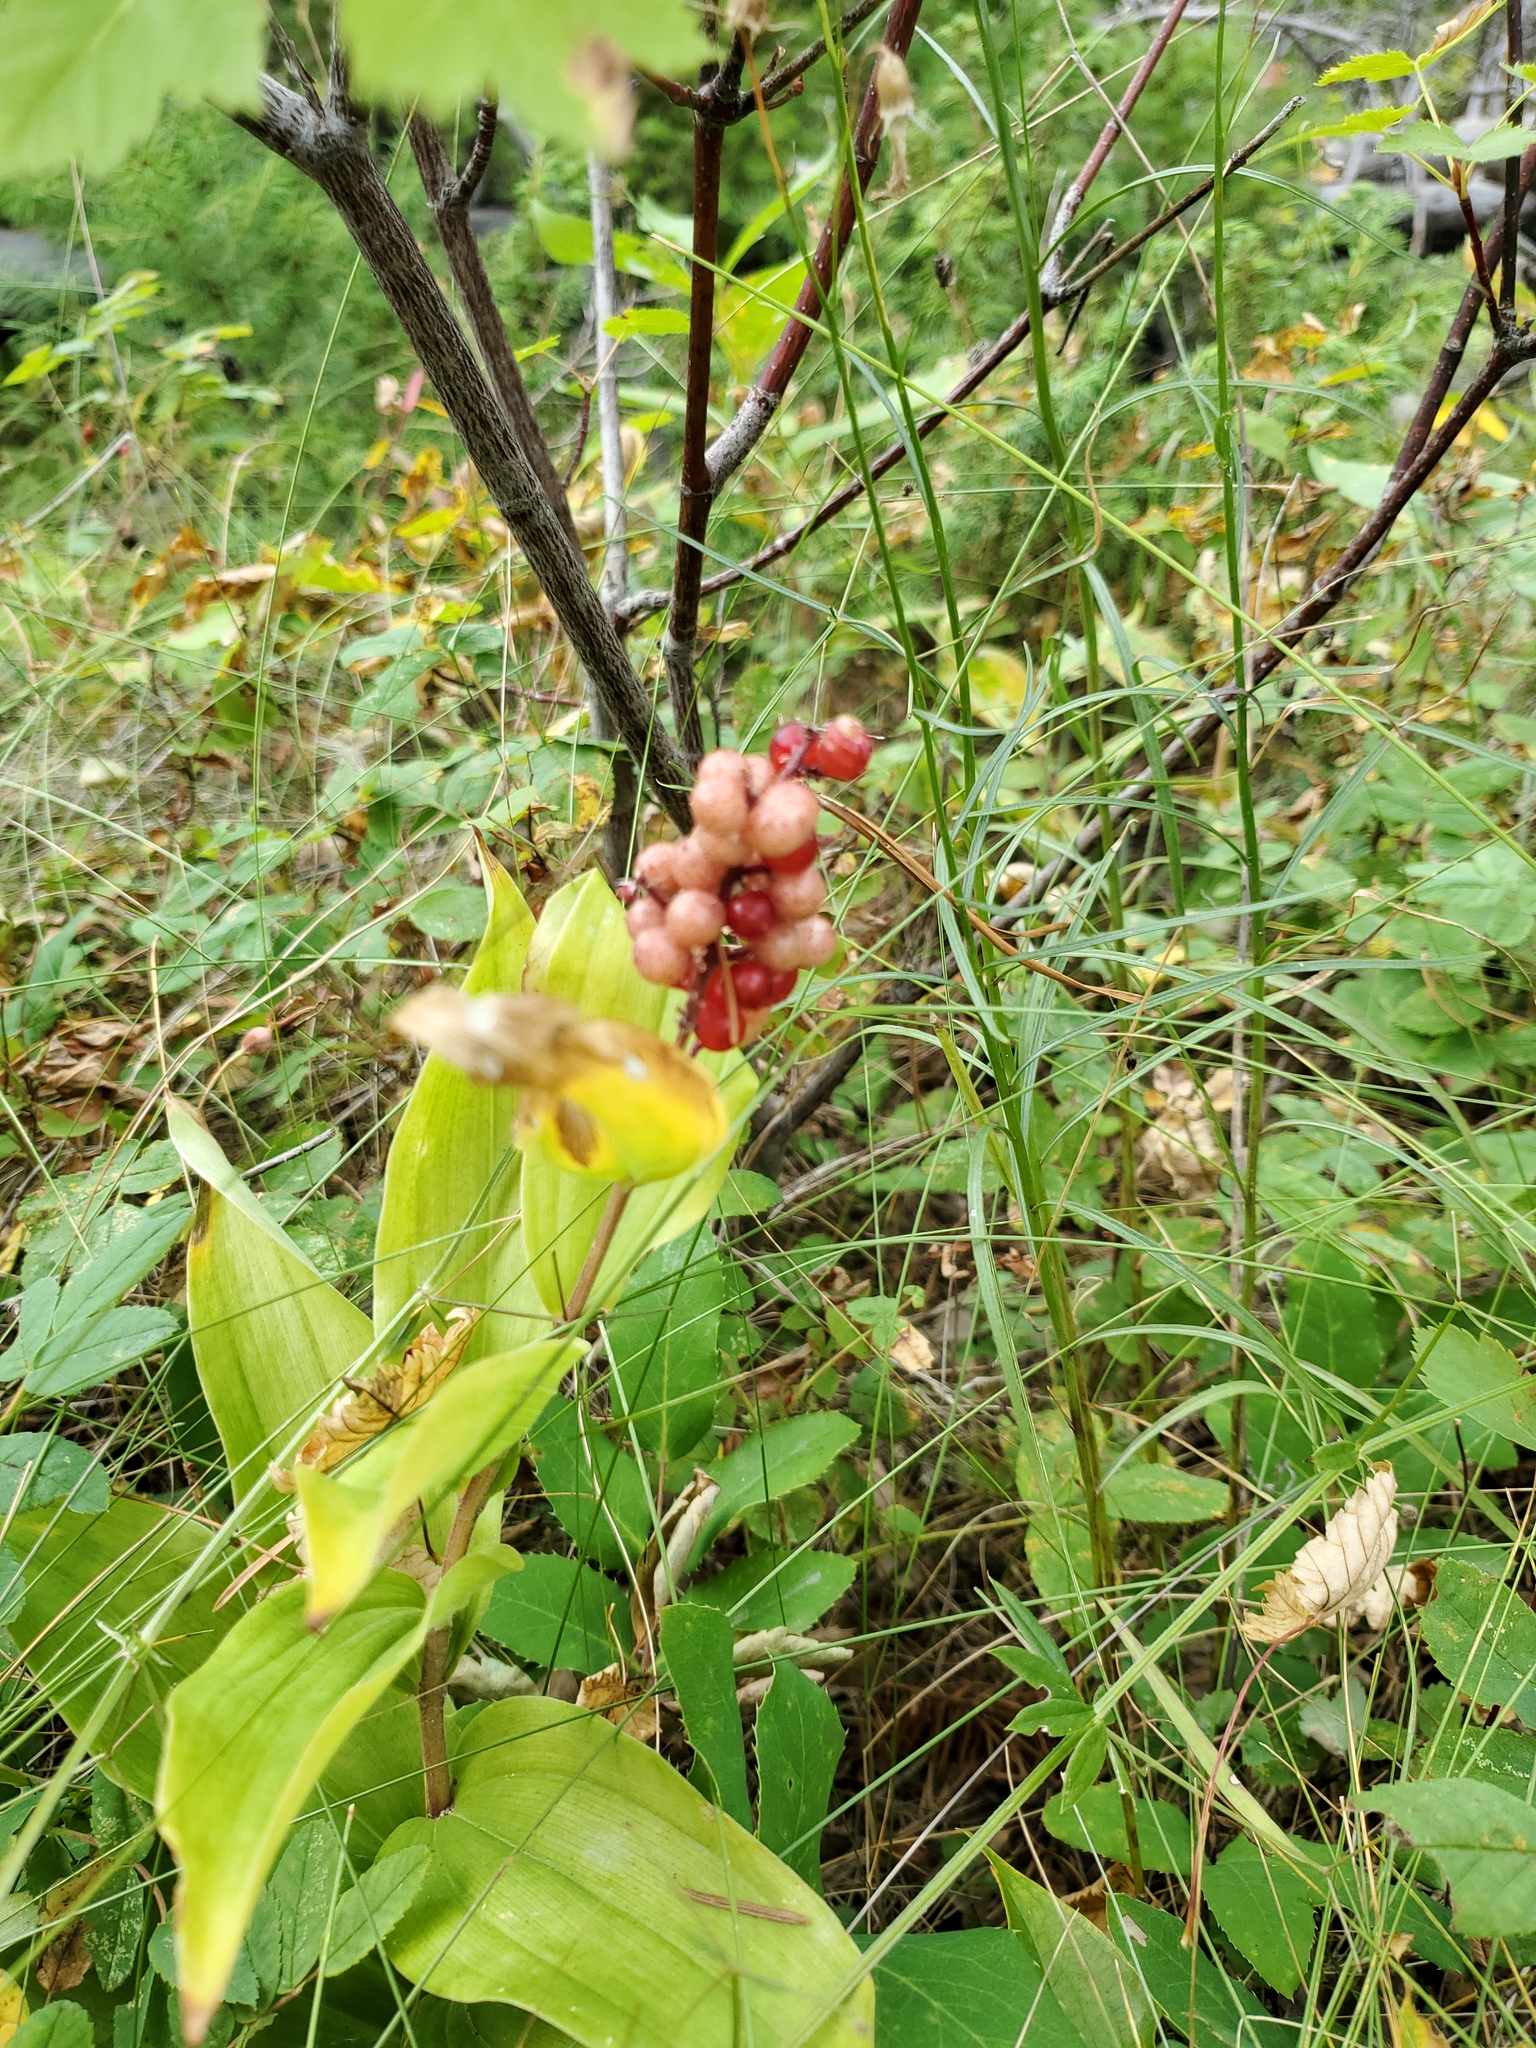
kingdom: Plantae
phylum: Tracheophyta
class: Liliopsida
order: Asparagales
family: Asparagaceae
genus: Maianthemum
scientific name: Maianthemum racemosum
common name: False spikenard
